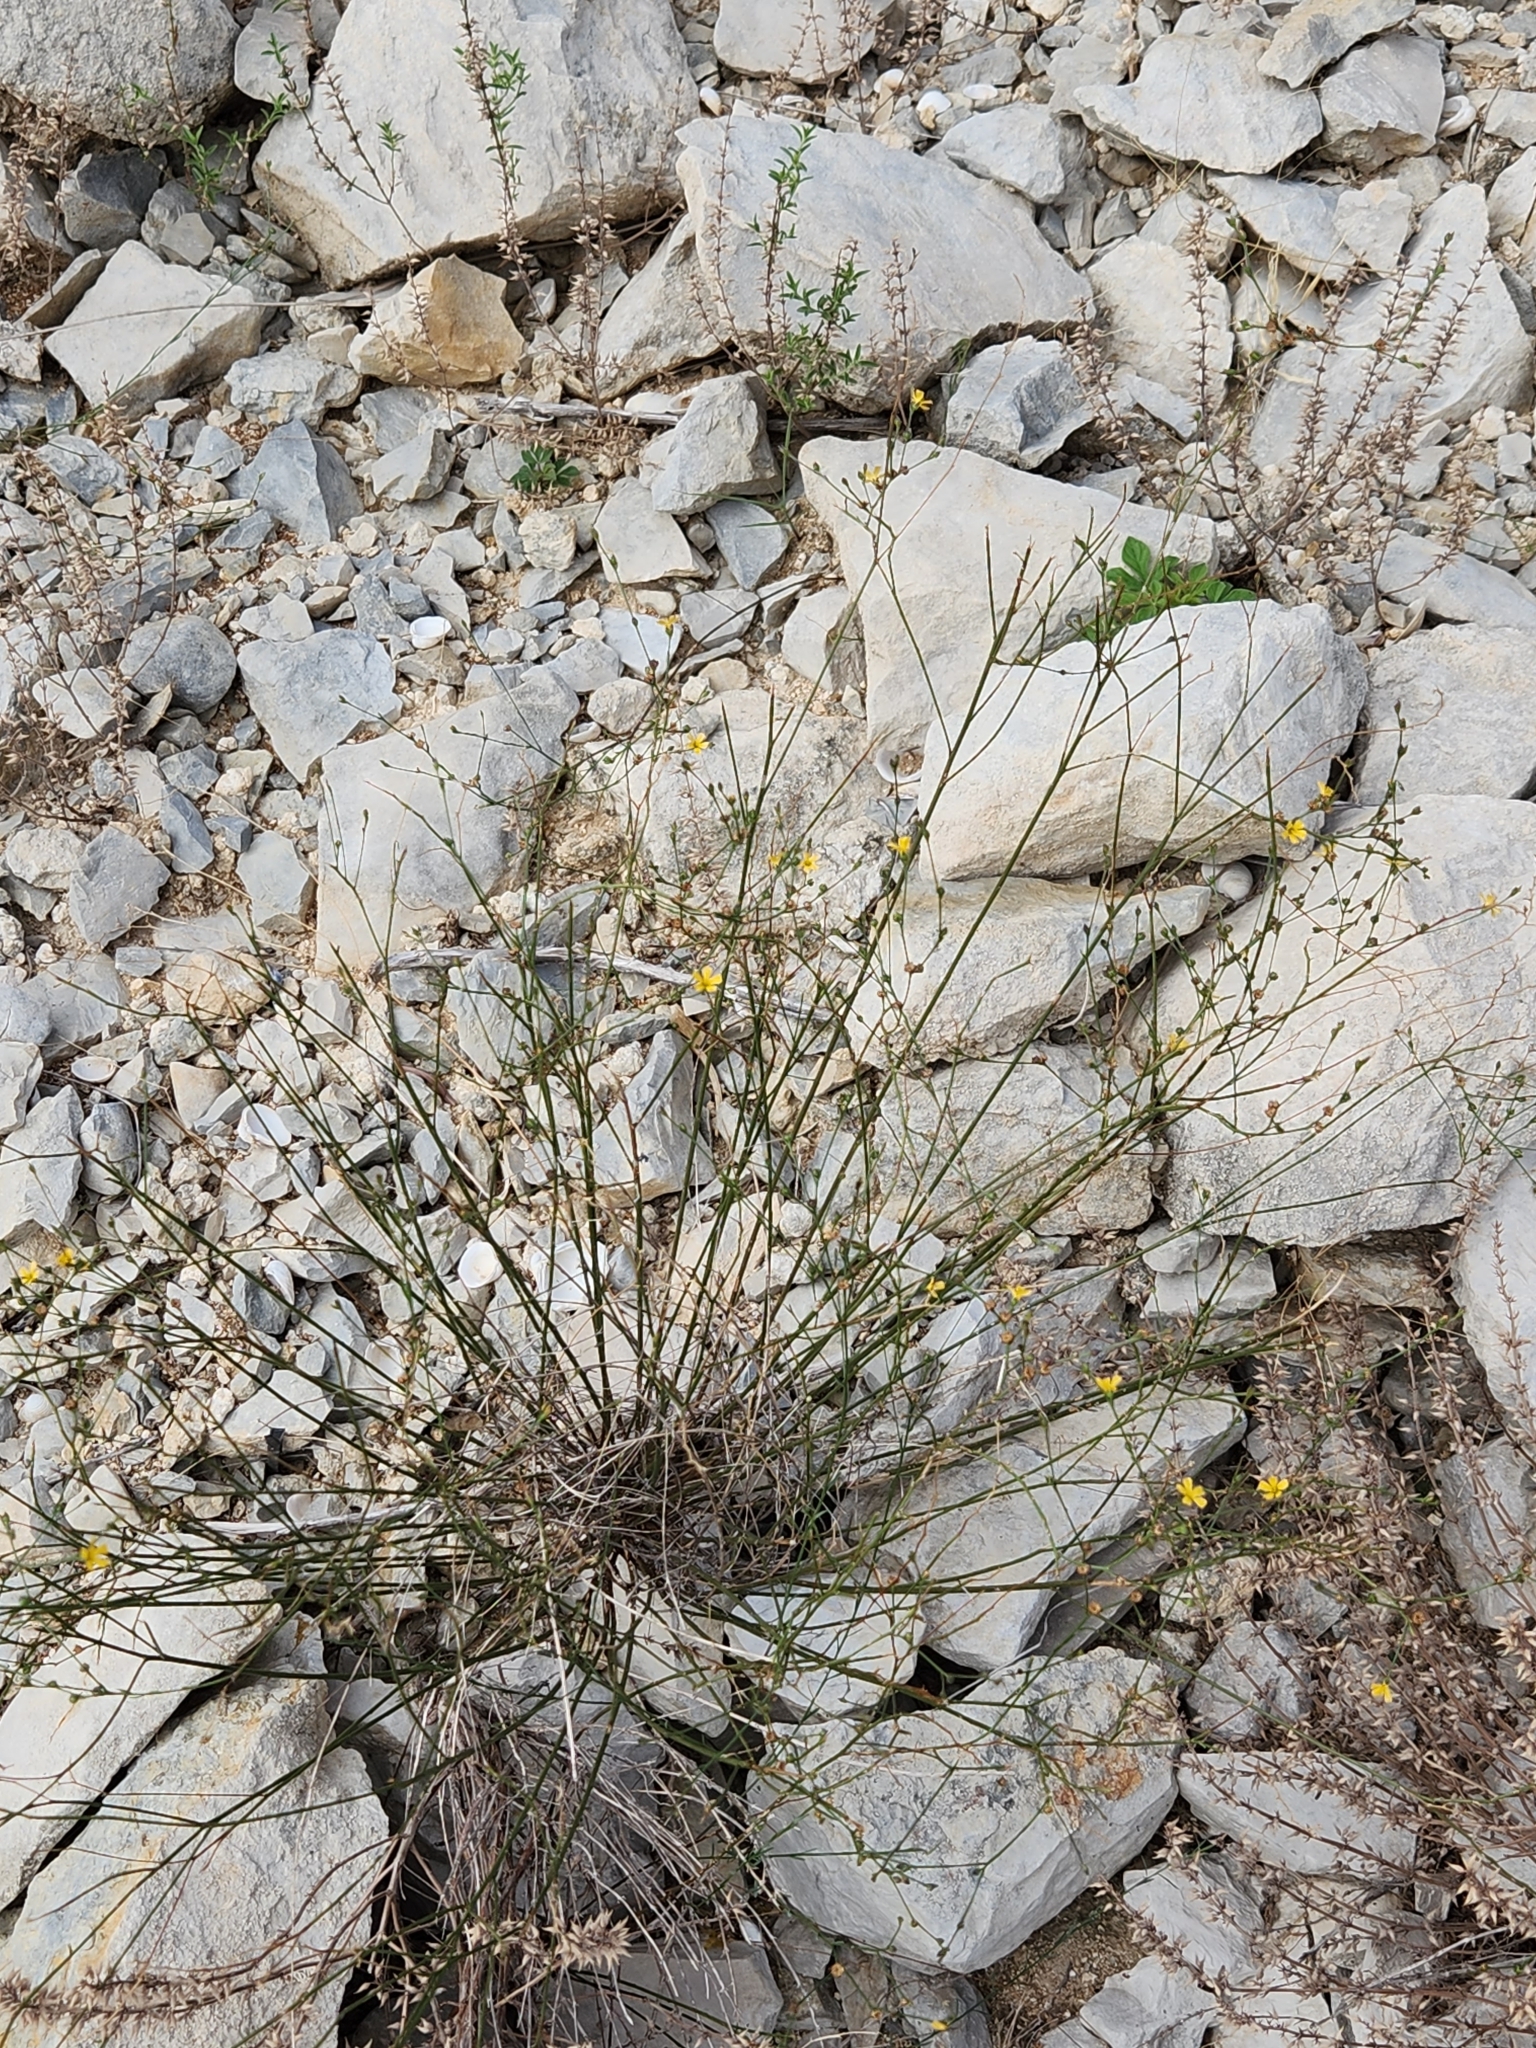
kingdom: Plantae
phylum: Tracheophyta
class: Magnoliopsida
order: Malpighiales
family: Linaceae
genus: Linum
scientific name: Linum rupestre
